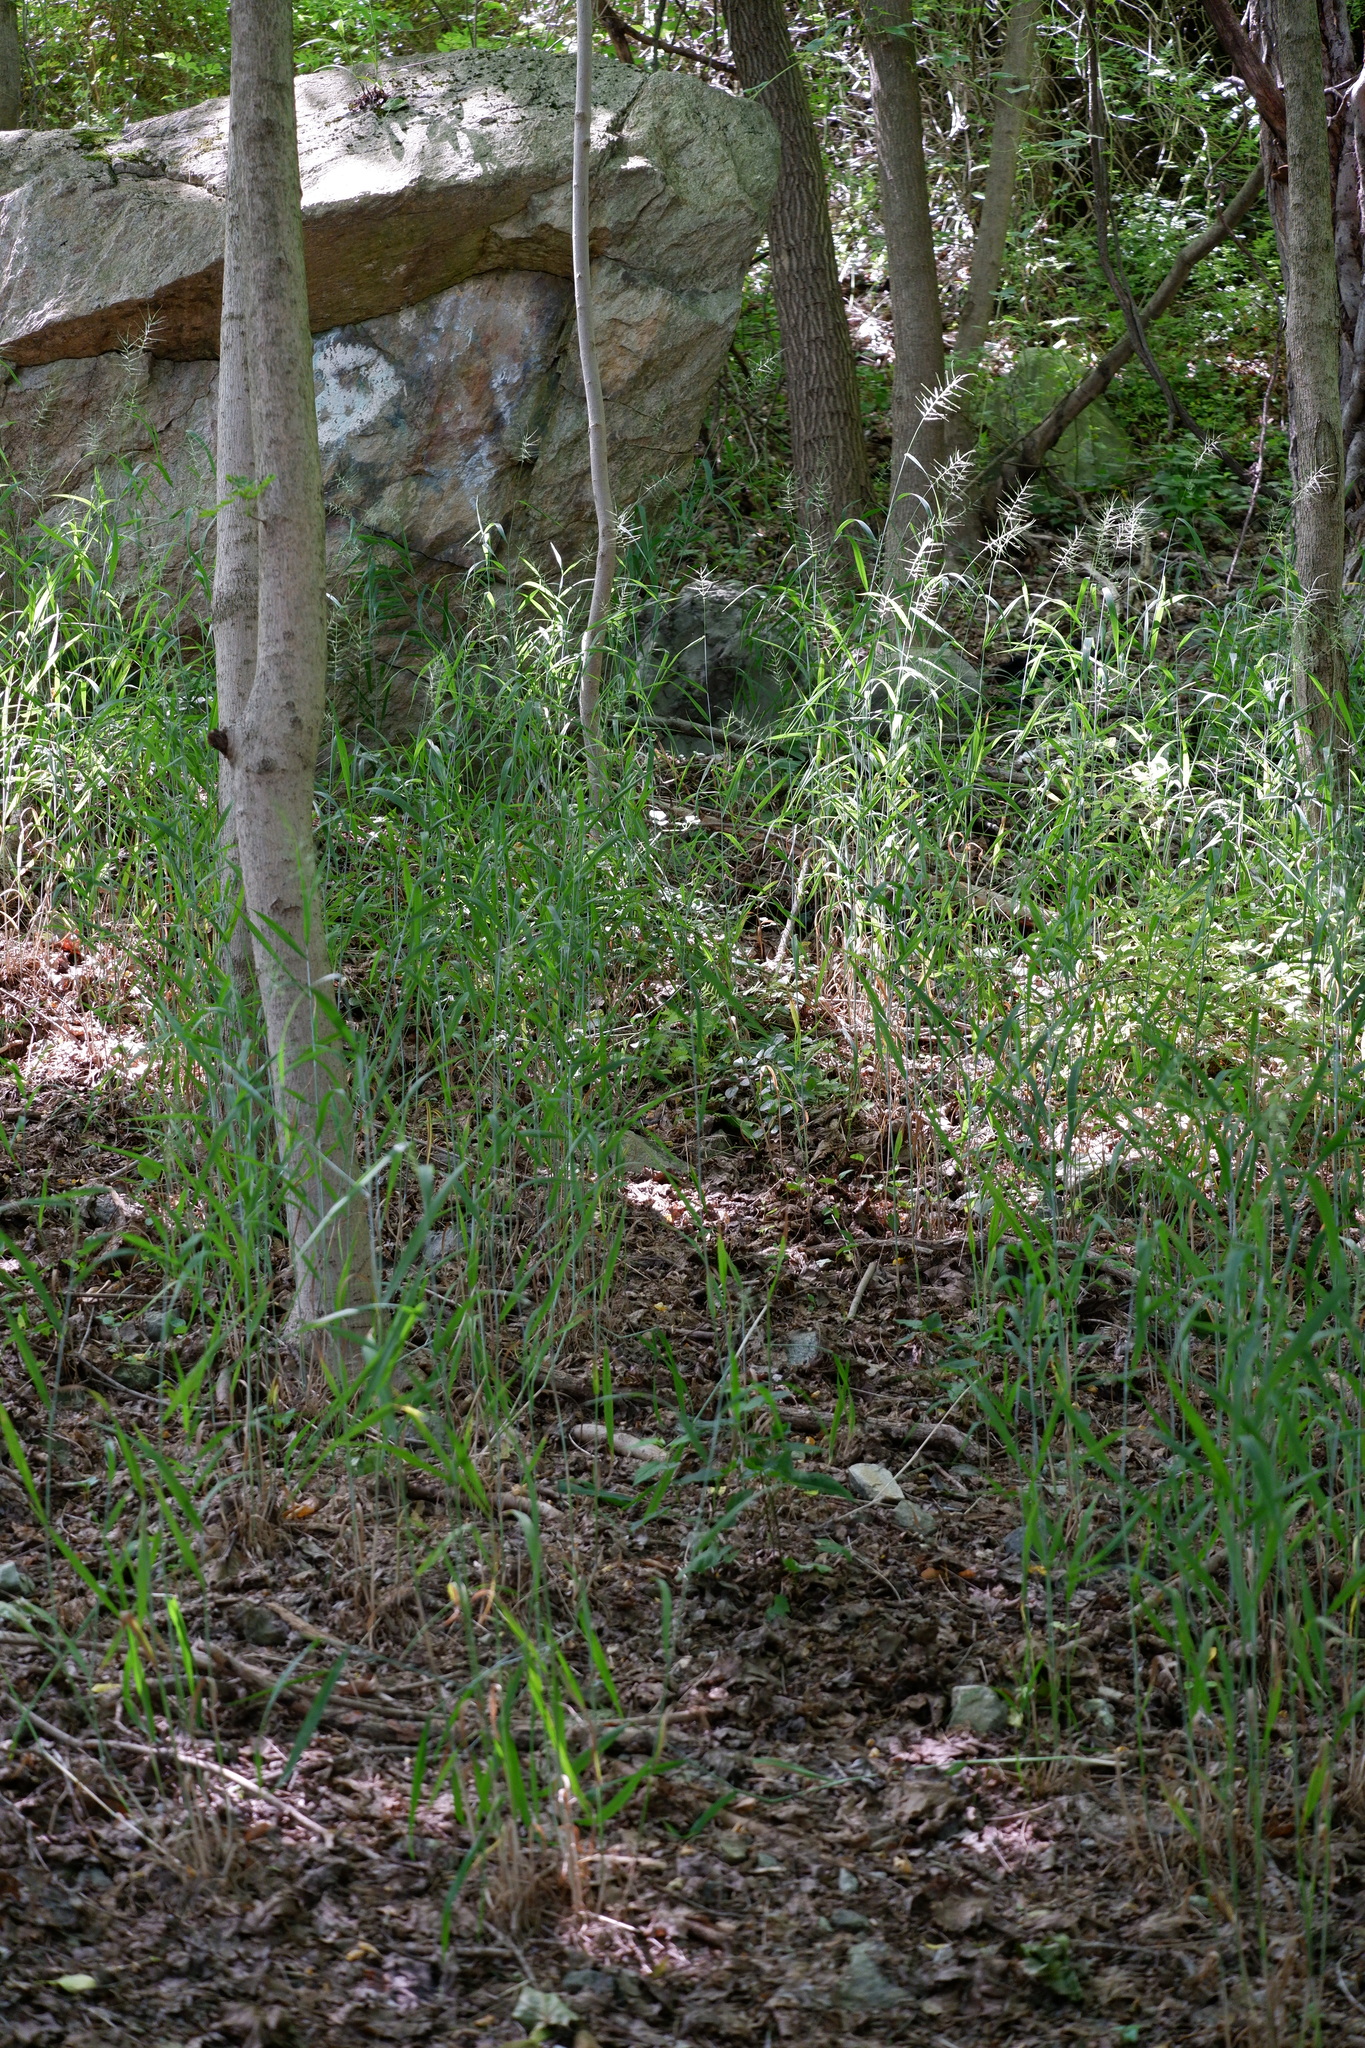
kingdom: Plantae
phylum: Tracheophyta
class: Liliopsida
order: Poales
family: Poaceae
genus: Elymus
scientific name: Elymus hystrix
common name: Bottlebrush grass
